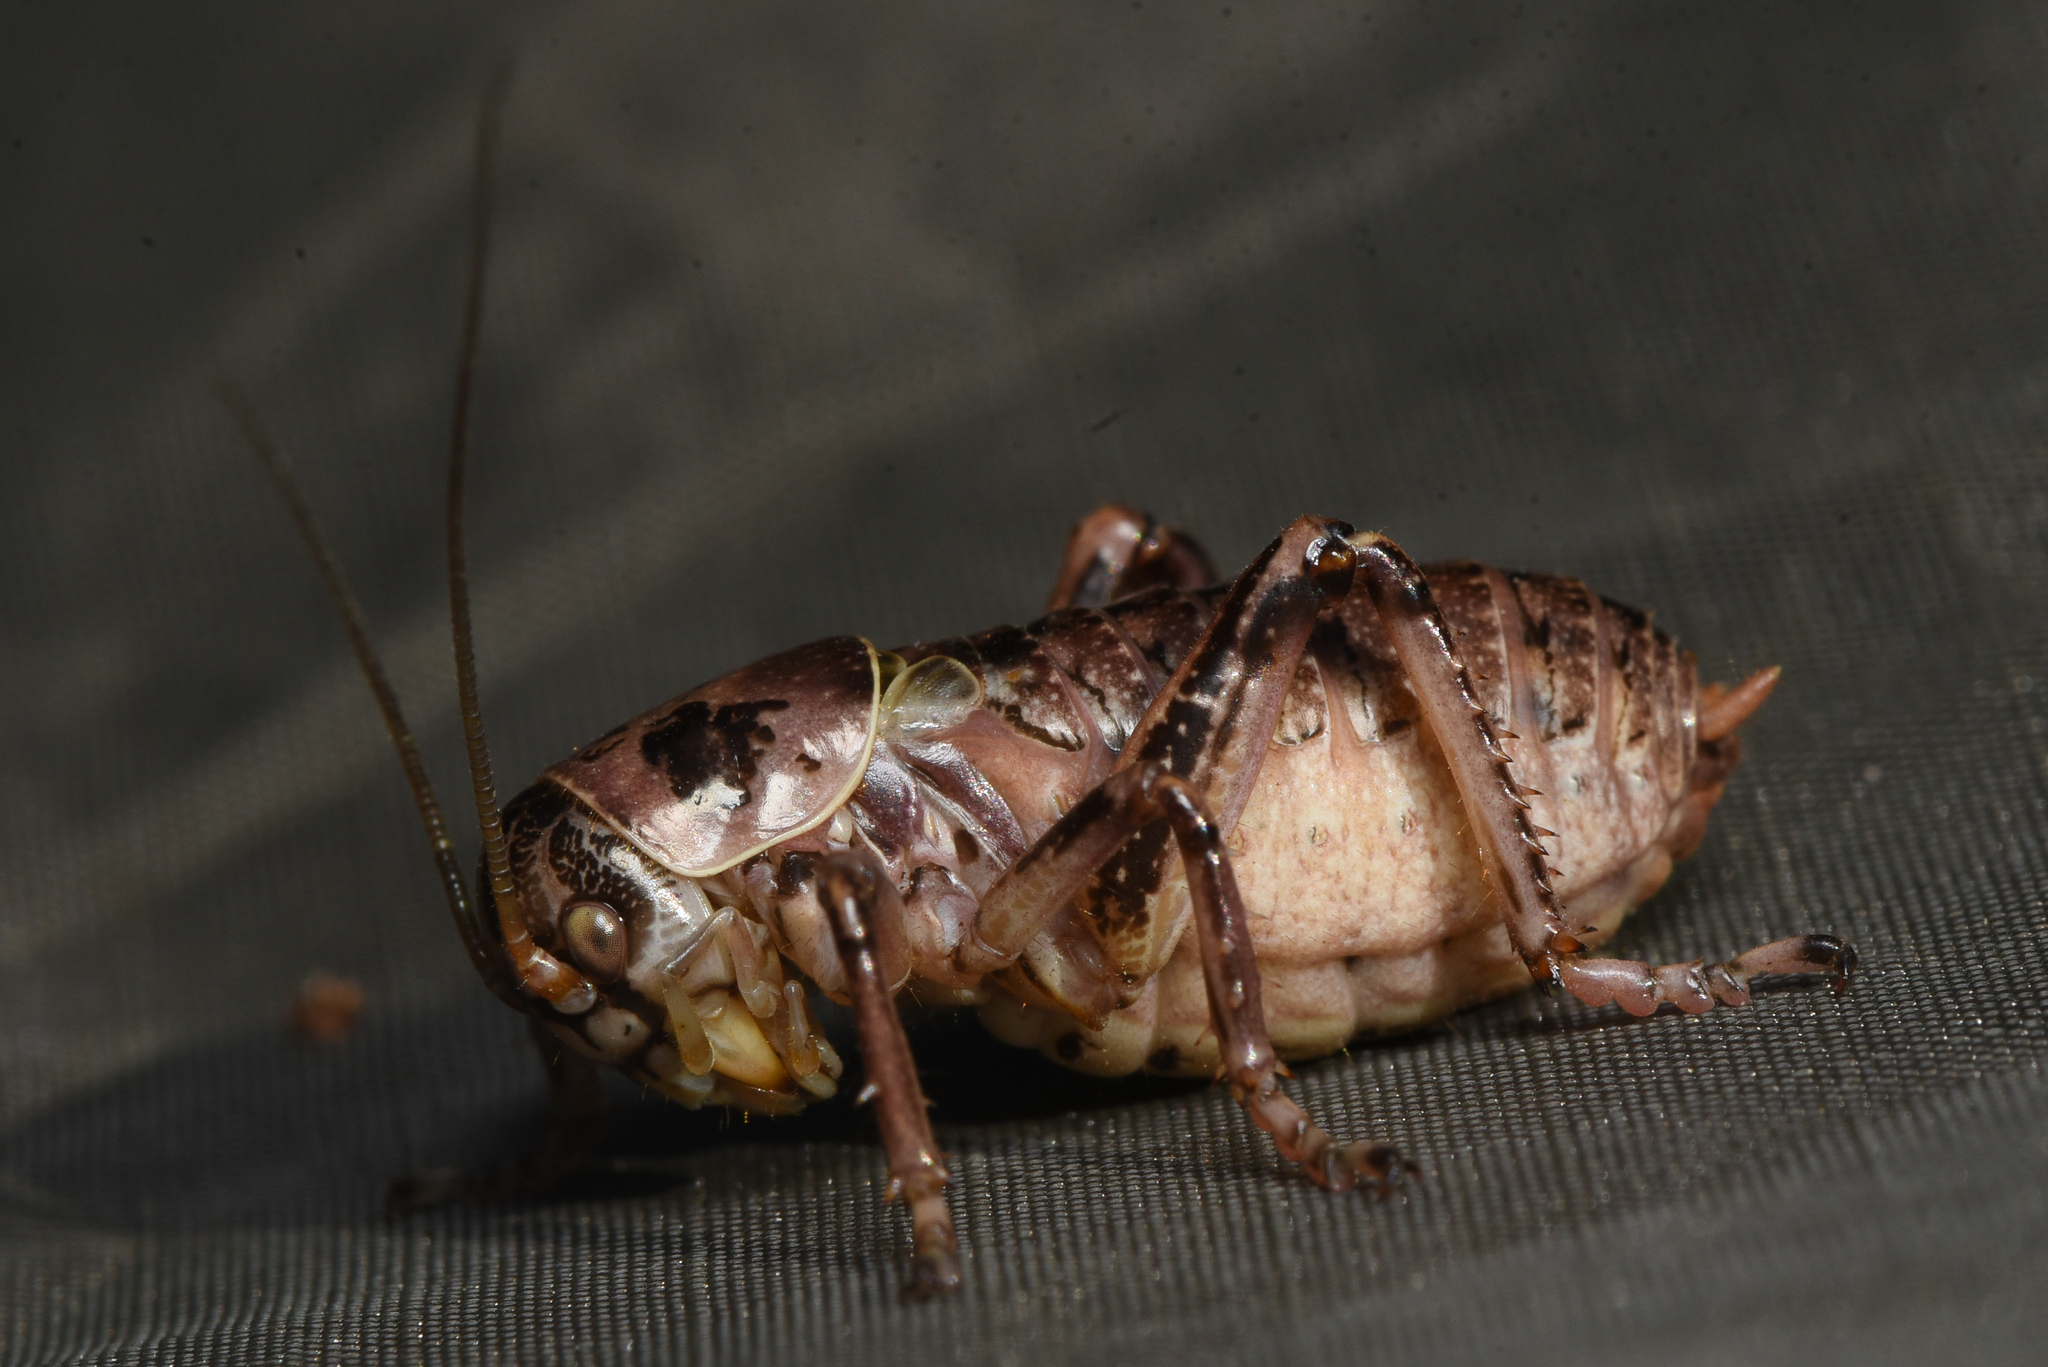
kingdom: Animalia
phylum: Arthropoda
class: Insecta
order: Orthoptera
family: Prophalangopsidae
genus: Cyphoderris
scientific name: Cyphoderris monstrosa
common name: Great grig
